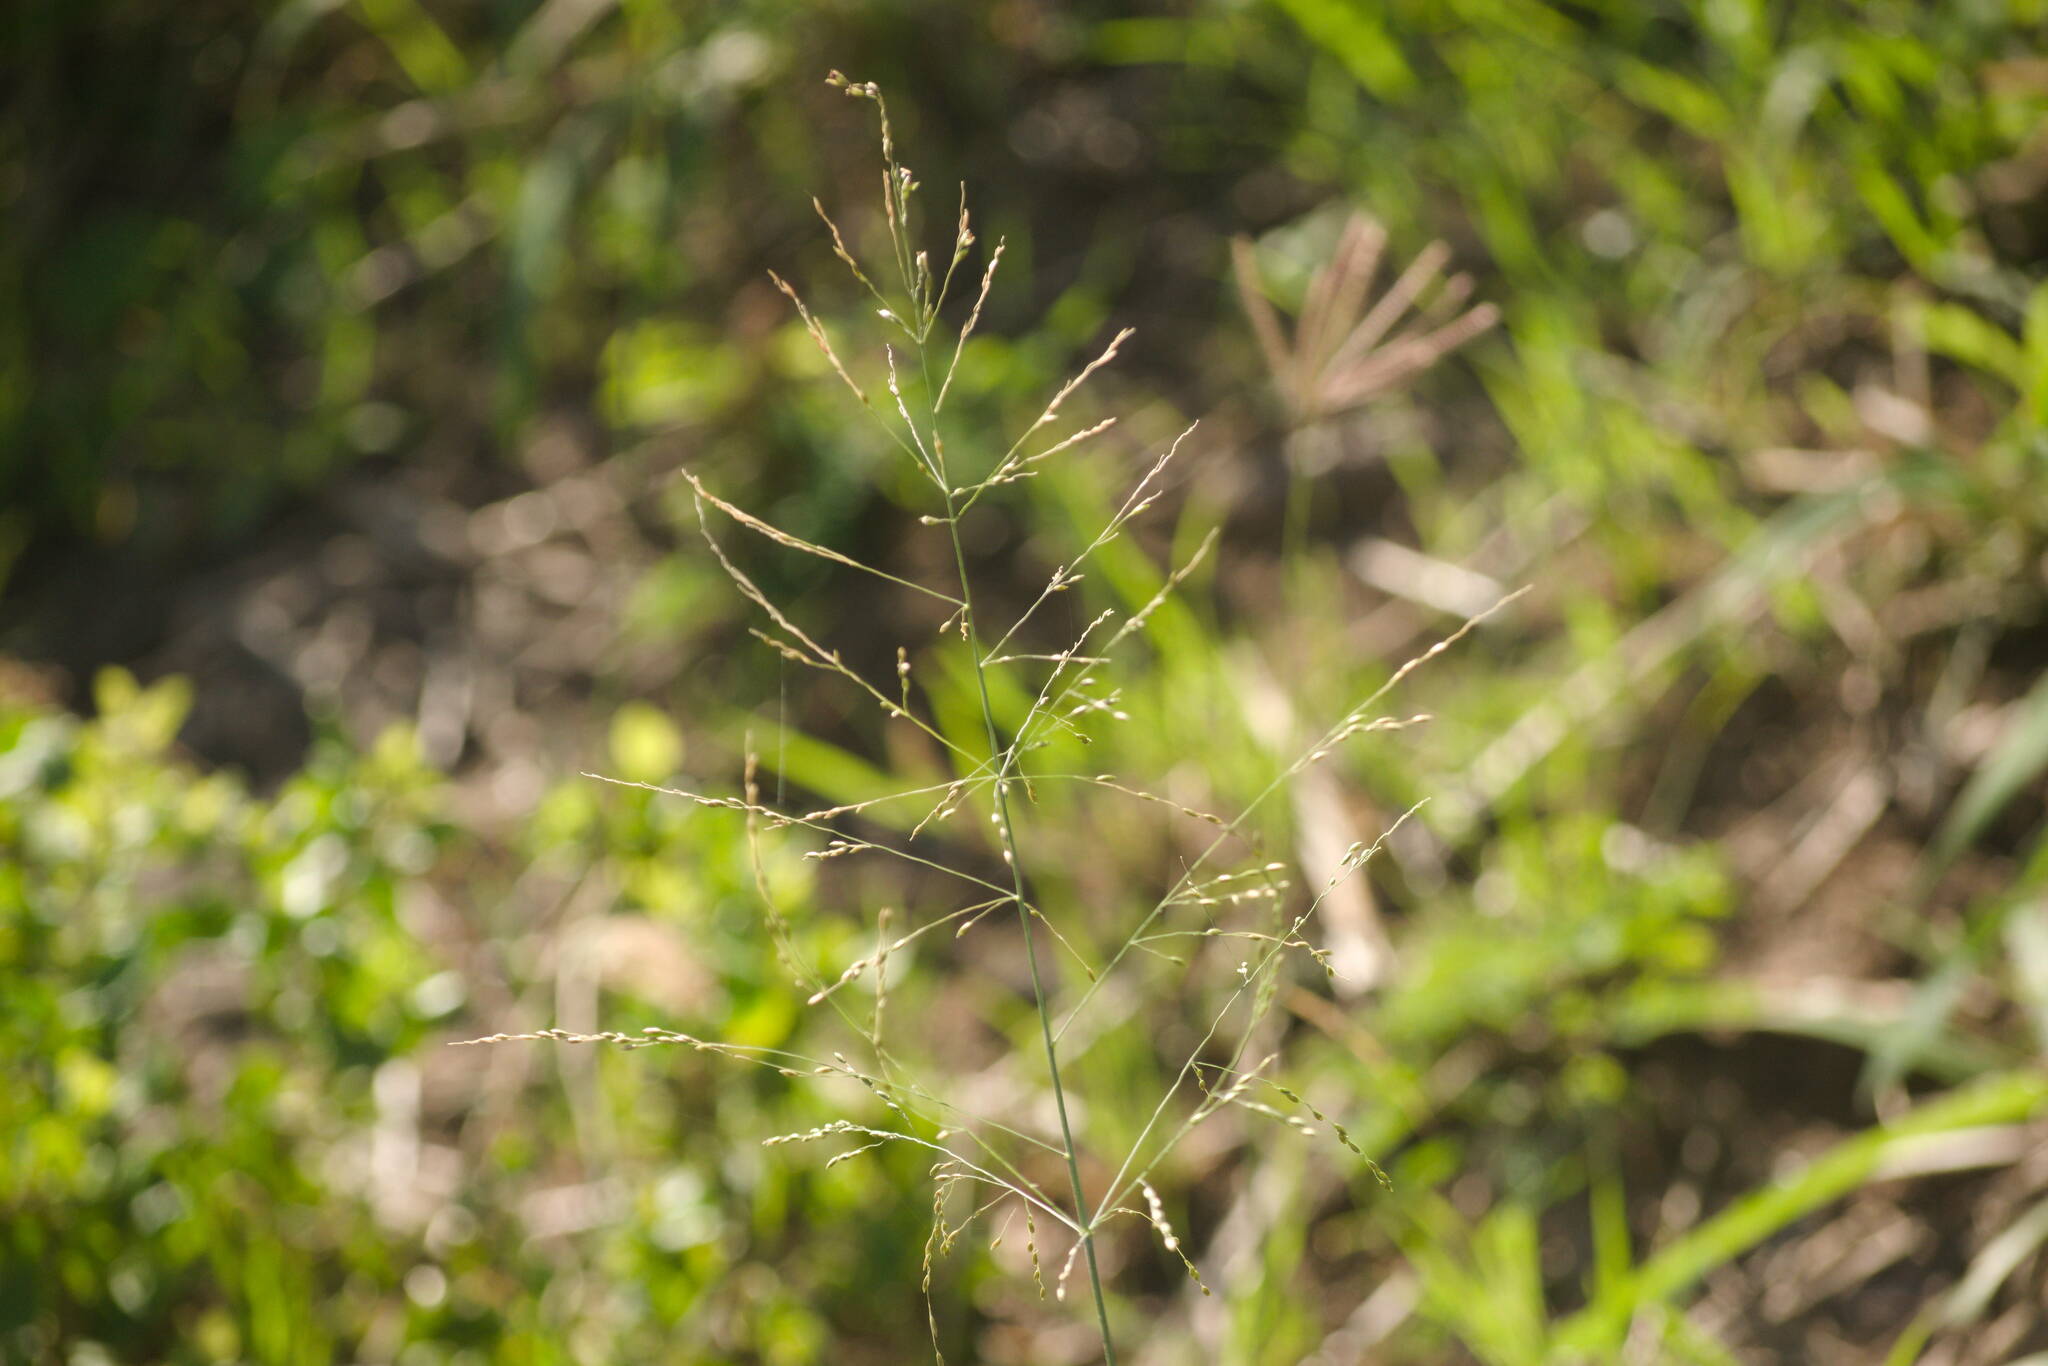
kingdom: Plantae
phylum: Tracheophyta
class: Liliopsida
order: Poales
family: Poaceae
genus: Megathyrsus
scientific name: Megathyrsus maximus
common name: Guineagrass
